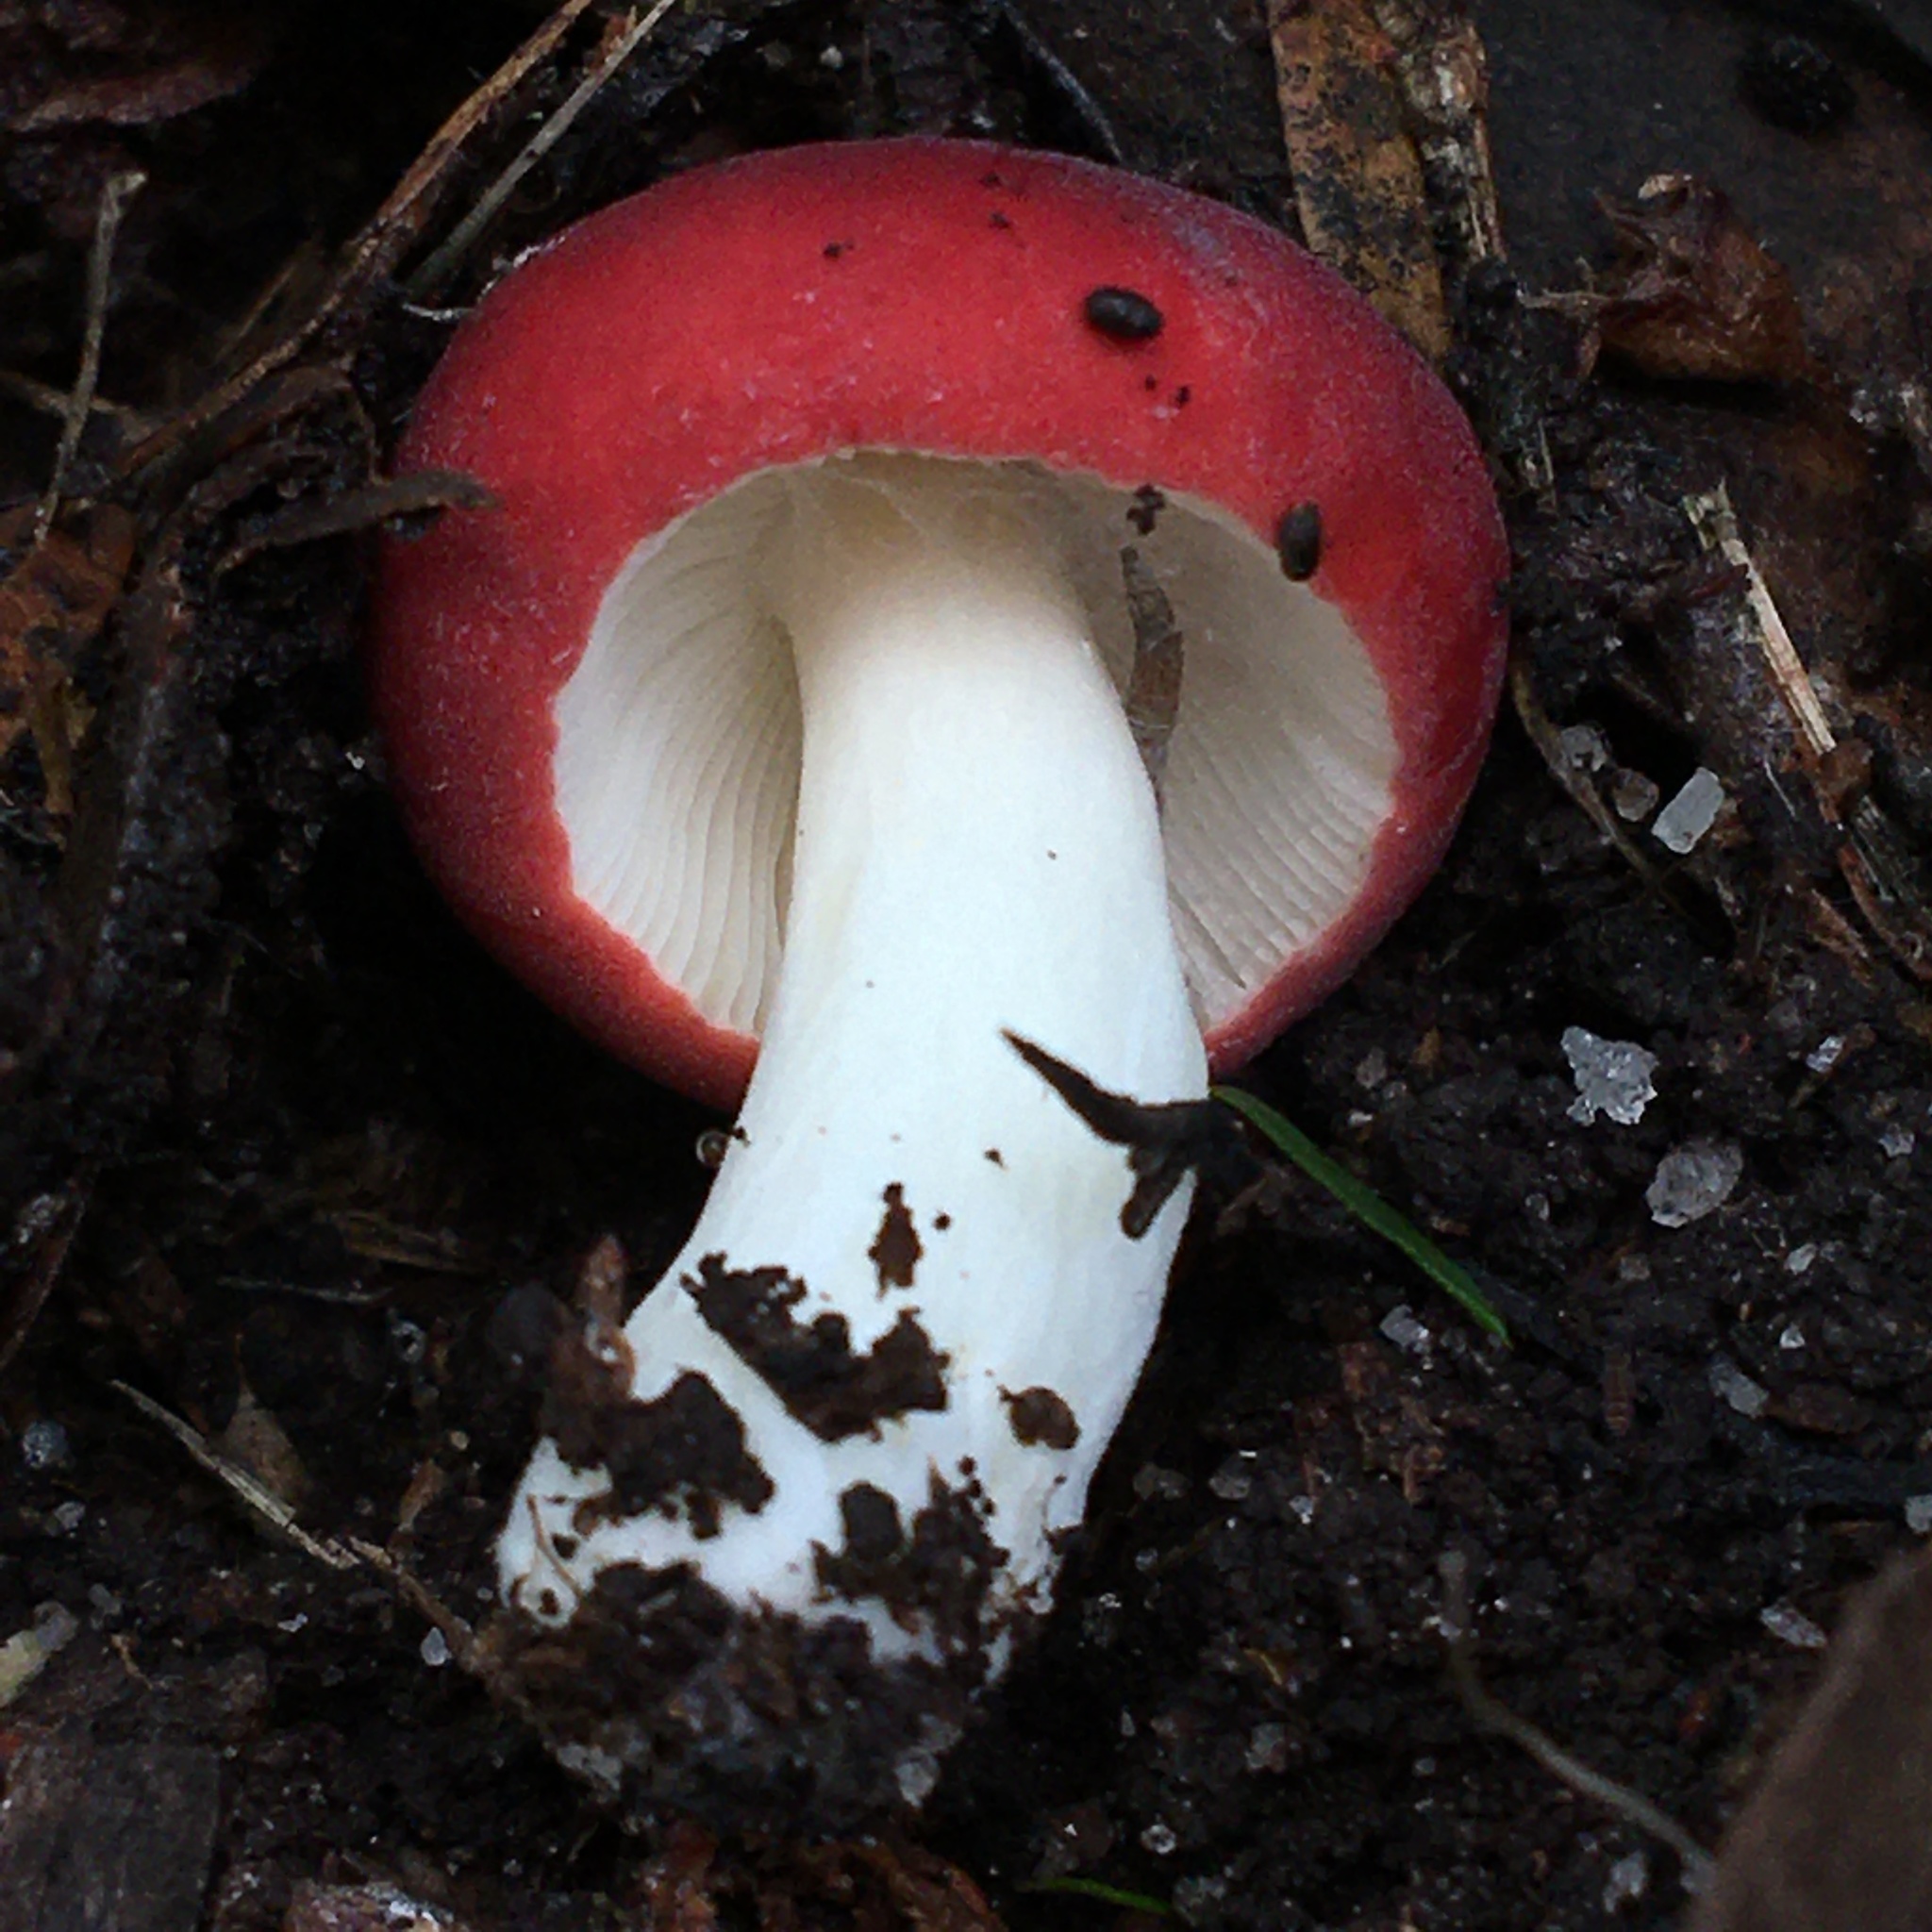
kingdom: Fungi
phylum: Basidiomycota
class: Agaricomycetes
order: Russulales
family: Russulaceae
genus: Russula
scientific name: Russula persanguinea
